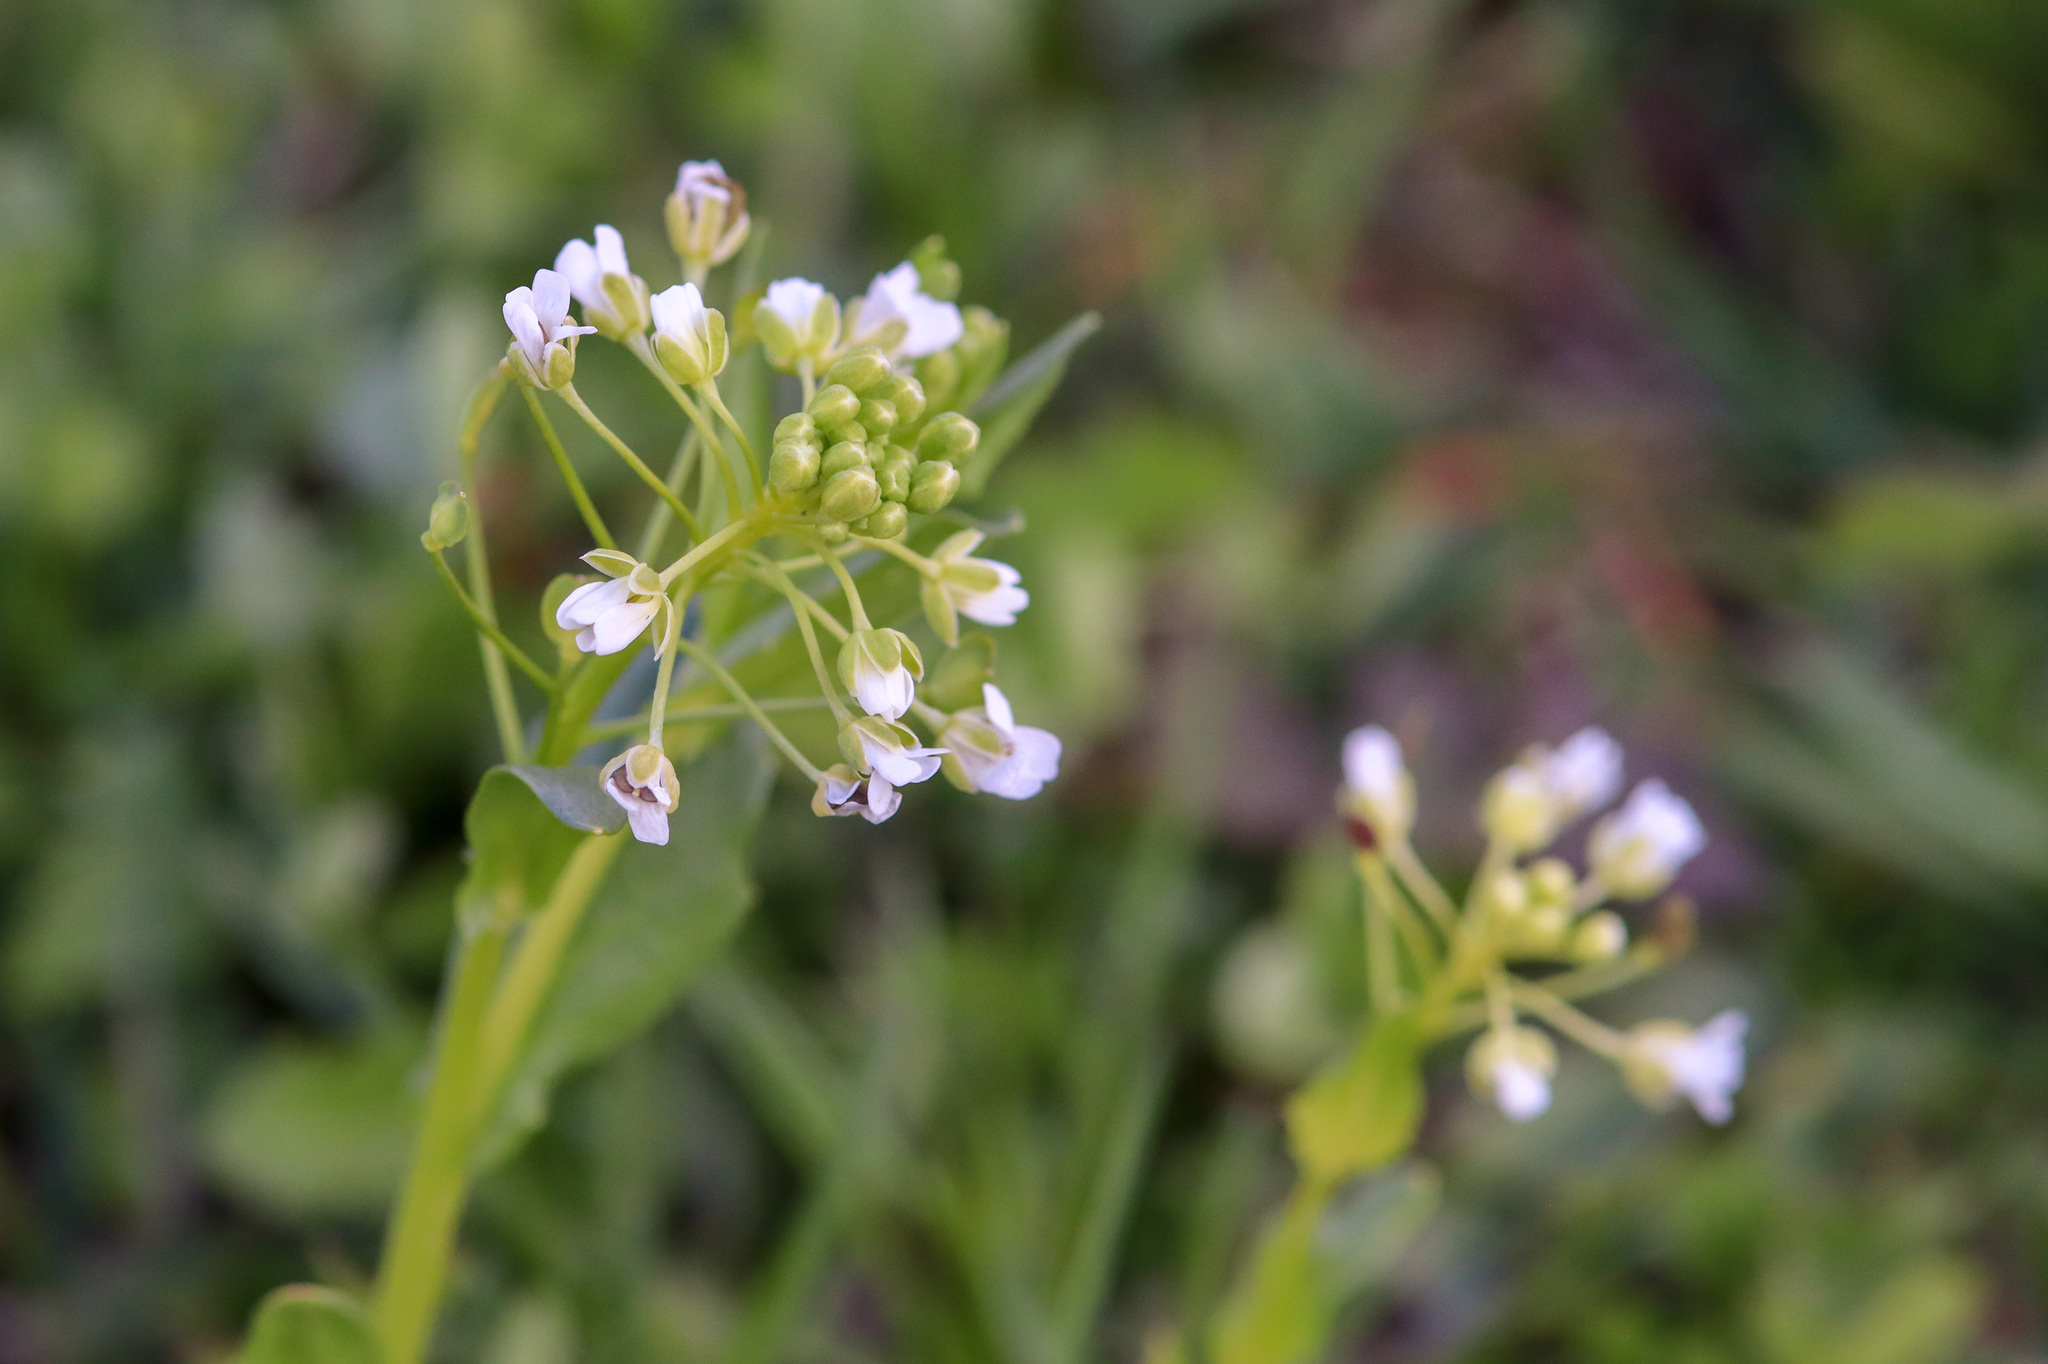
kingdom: Plantae
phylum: Tracheophyta
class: Magnoliopsida
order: Brassicales
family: Brassicaceae
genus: Thlaspi
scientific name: Thlaspi arvense
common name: Field pennycress
